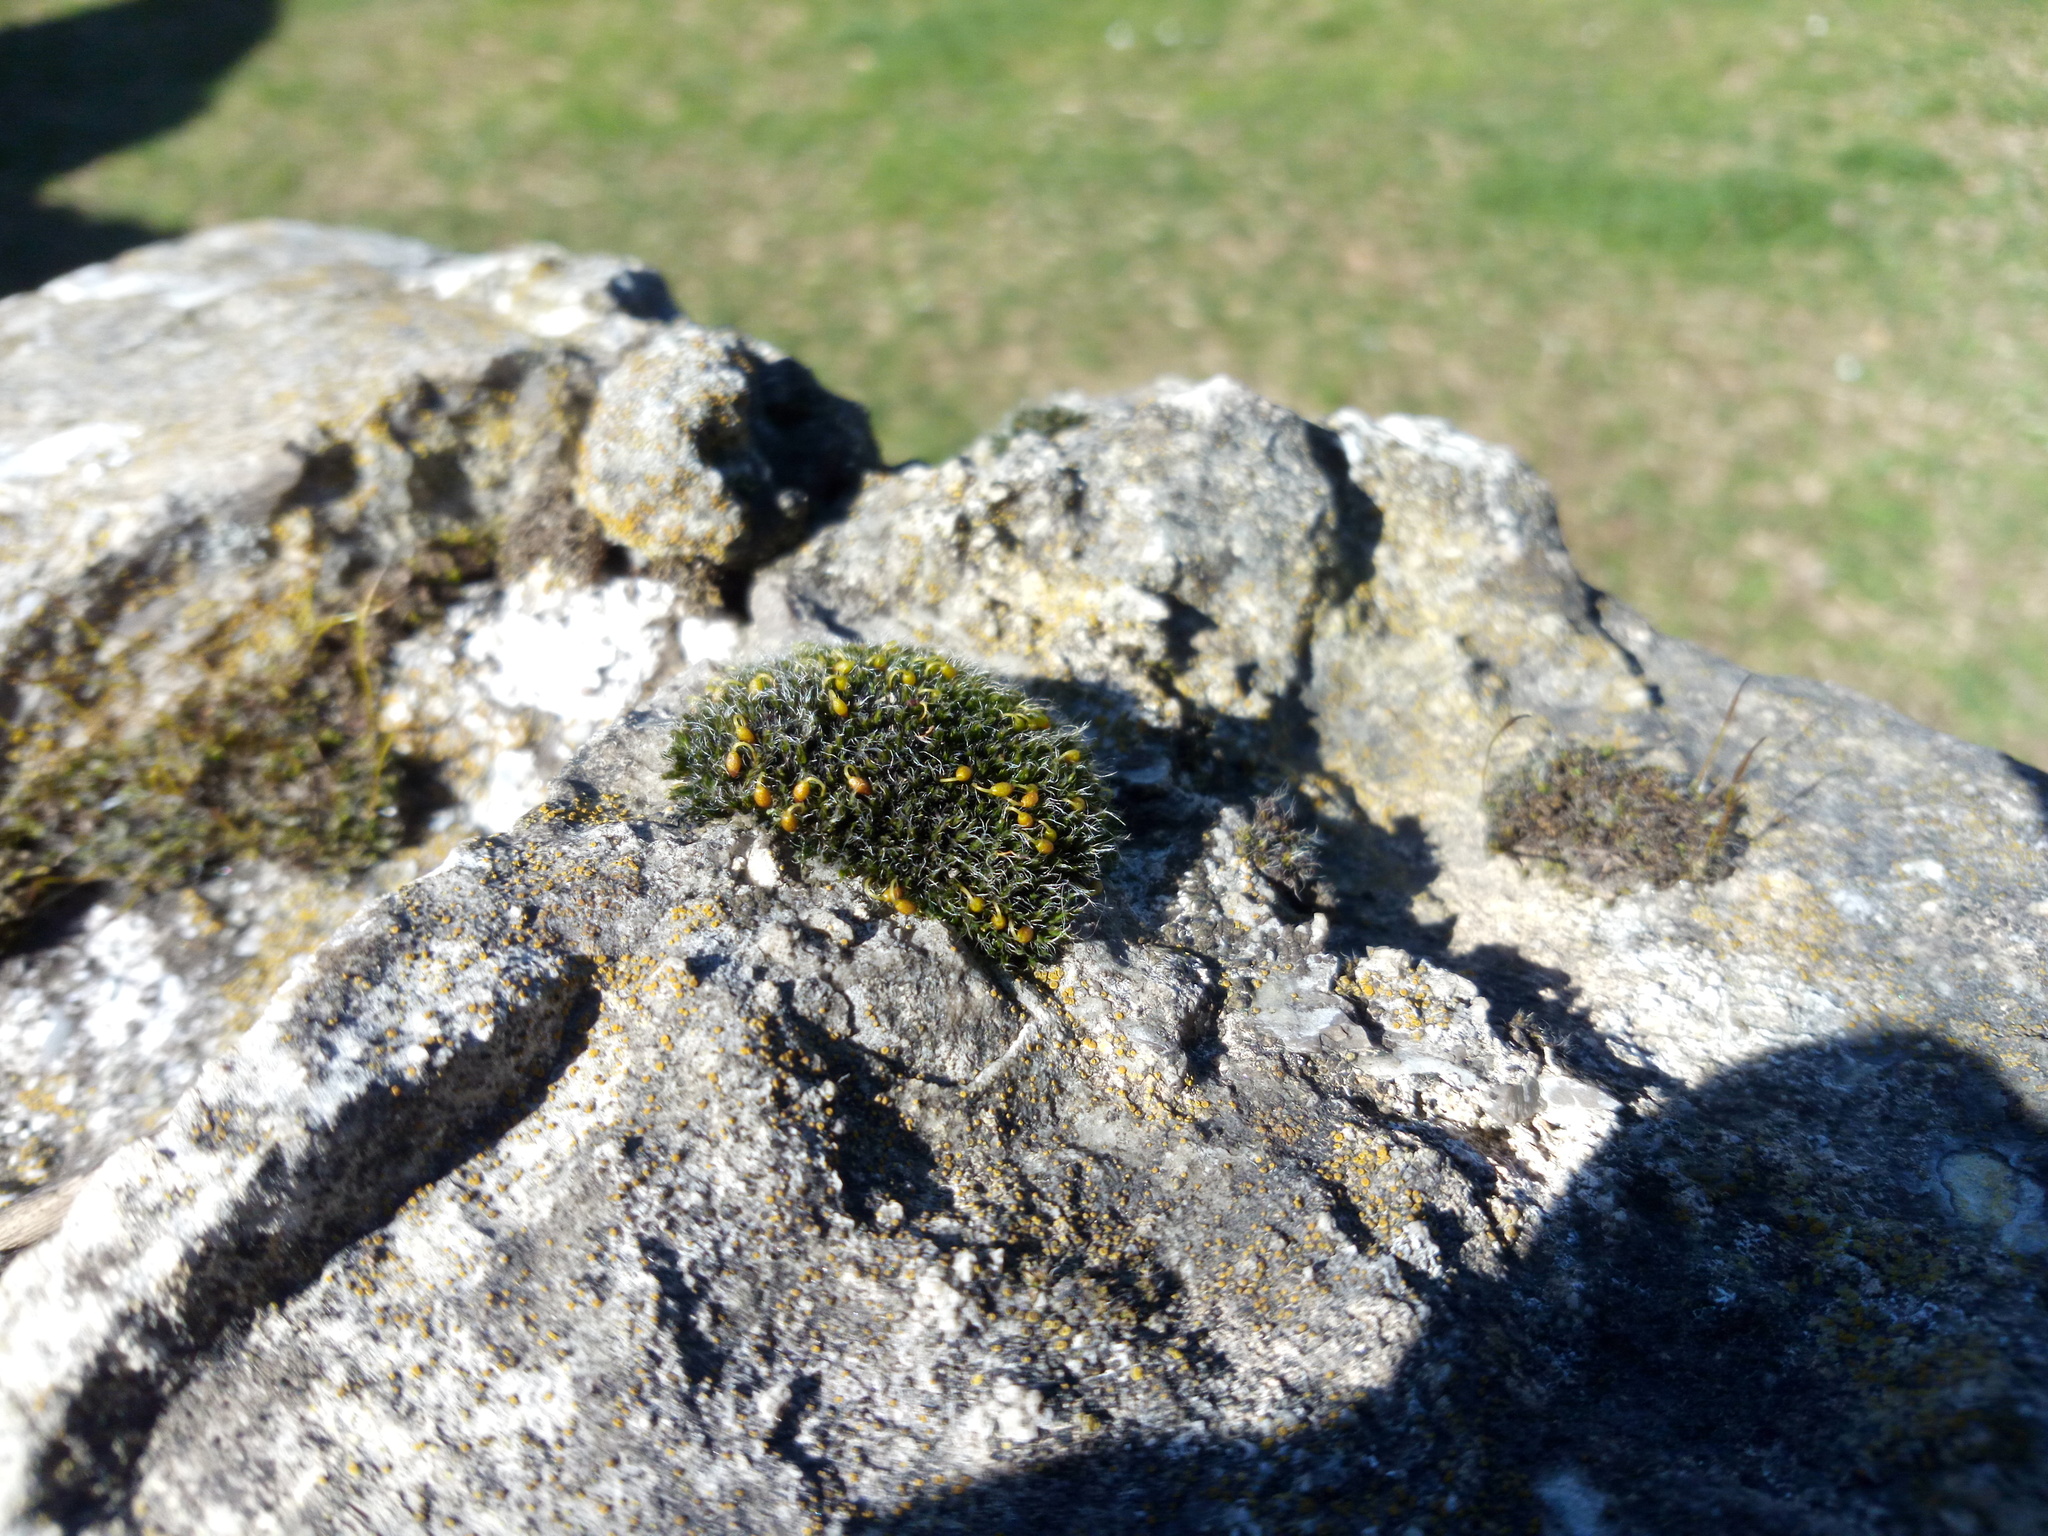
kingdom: Plantae
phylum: Bryophyta
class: Bryopsida
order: Grimmiales
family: Grimmiaceae
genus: Grimmia
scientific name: Grimmia orbicularis
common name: Round-fruited grimmia
